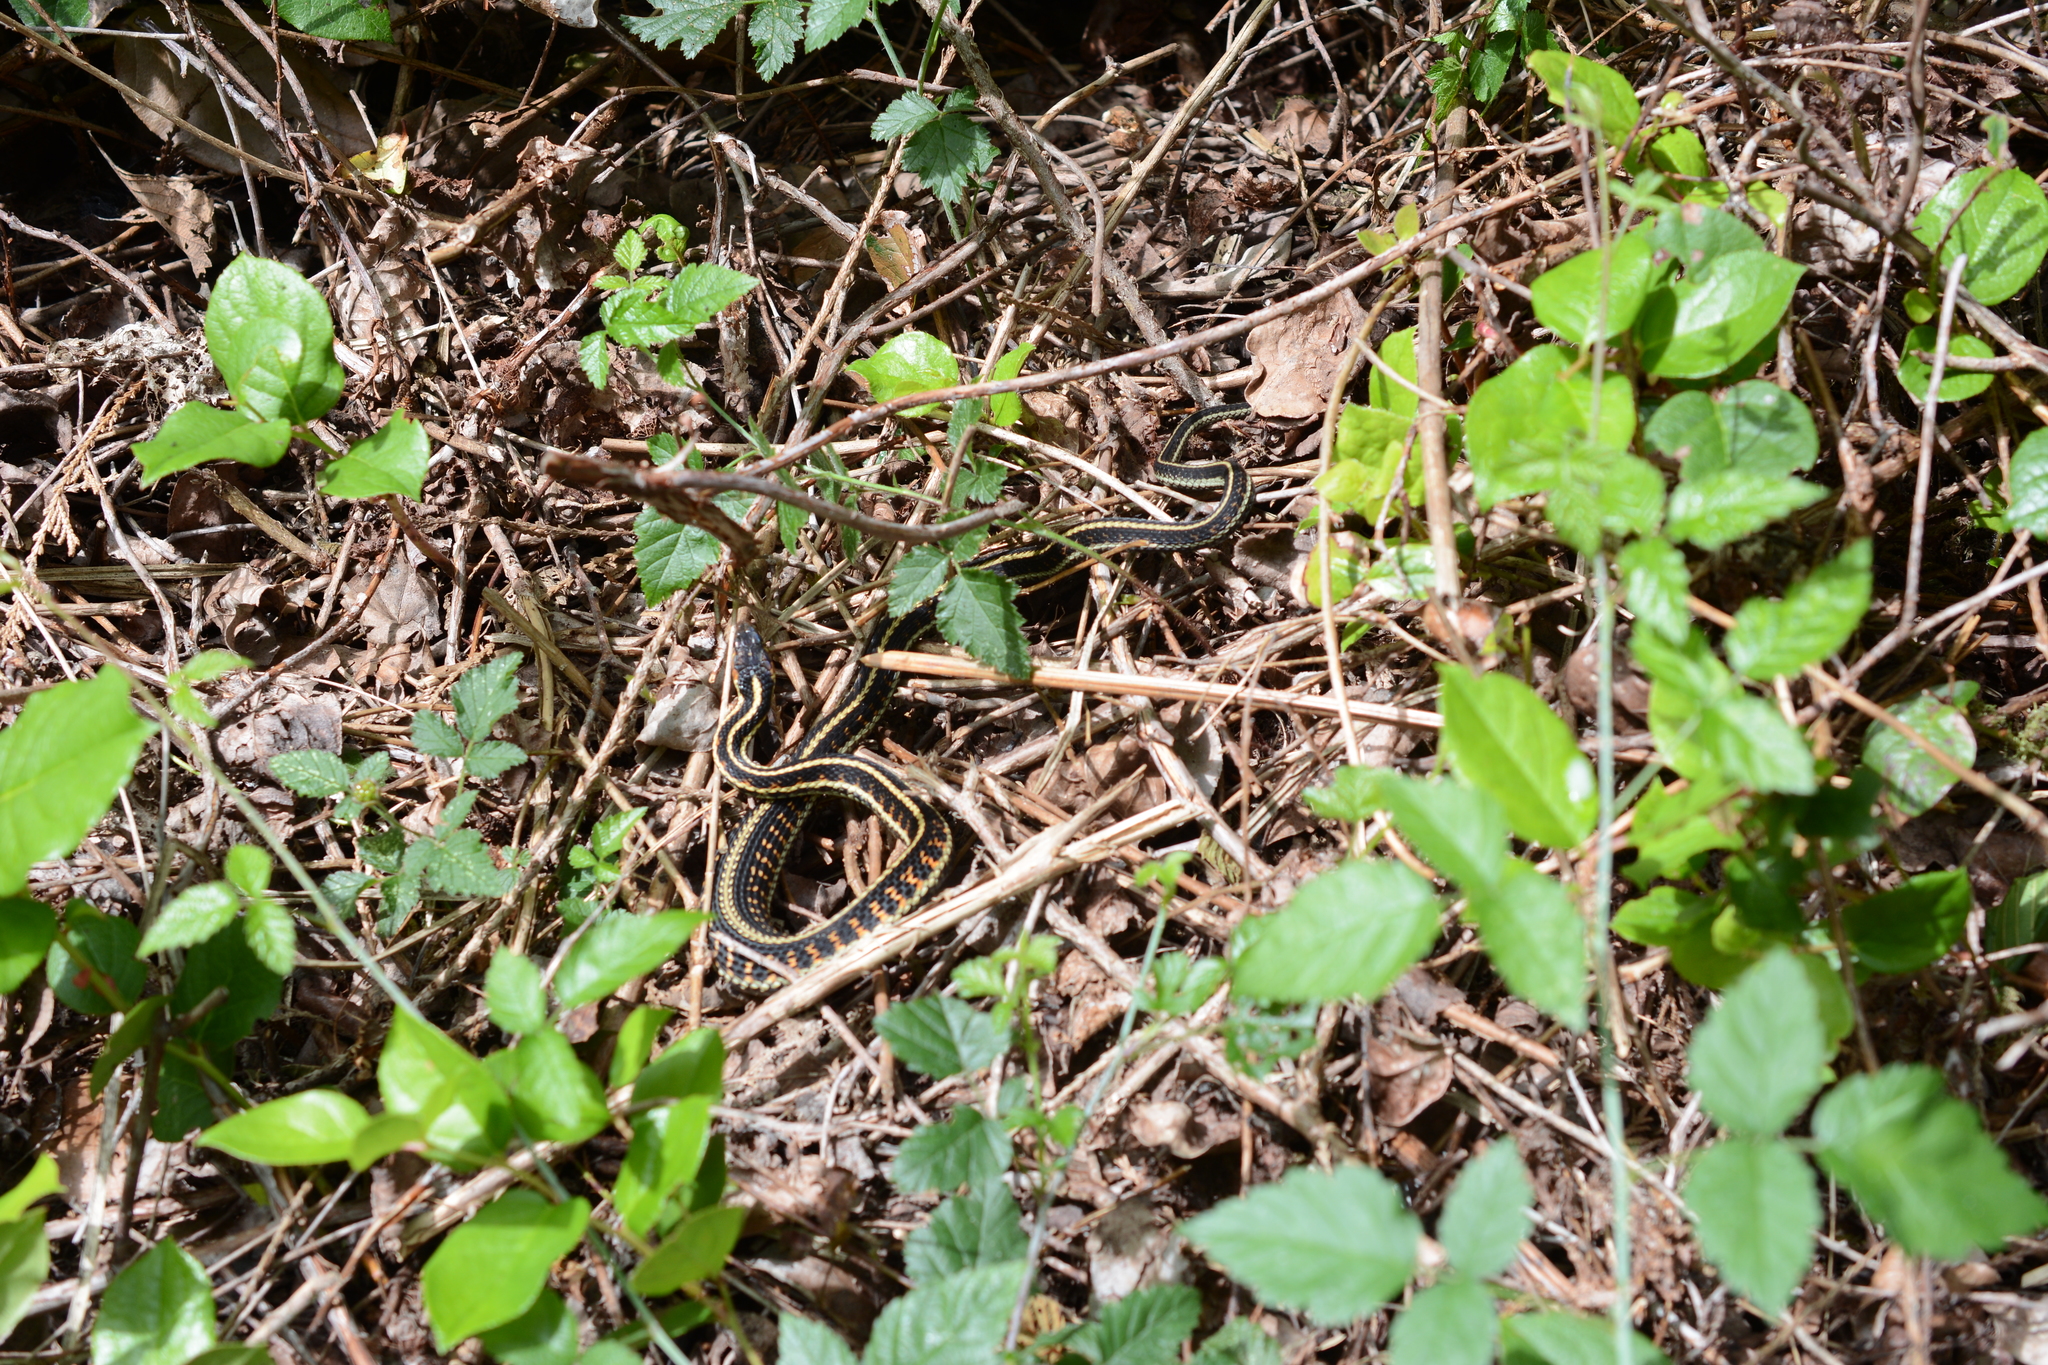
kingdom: Animalia
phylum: Chordata
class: Squamata
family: Colubridae
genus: Thamnophis
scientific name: Thamnophis sirtalis
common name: Common garter snake
